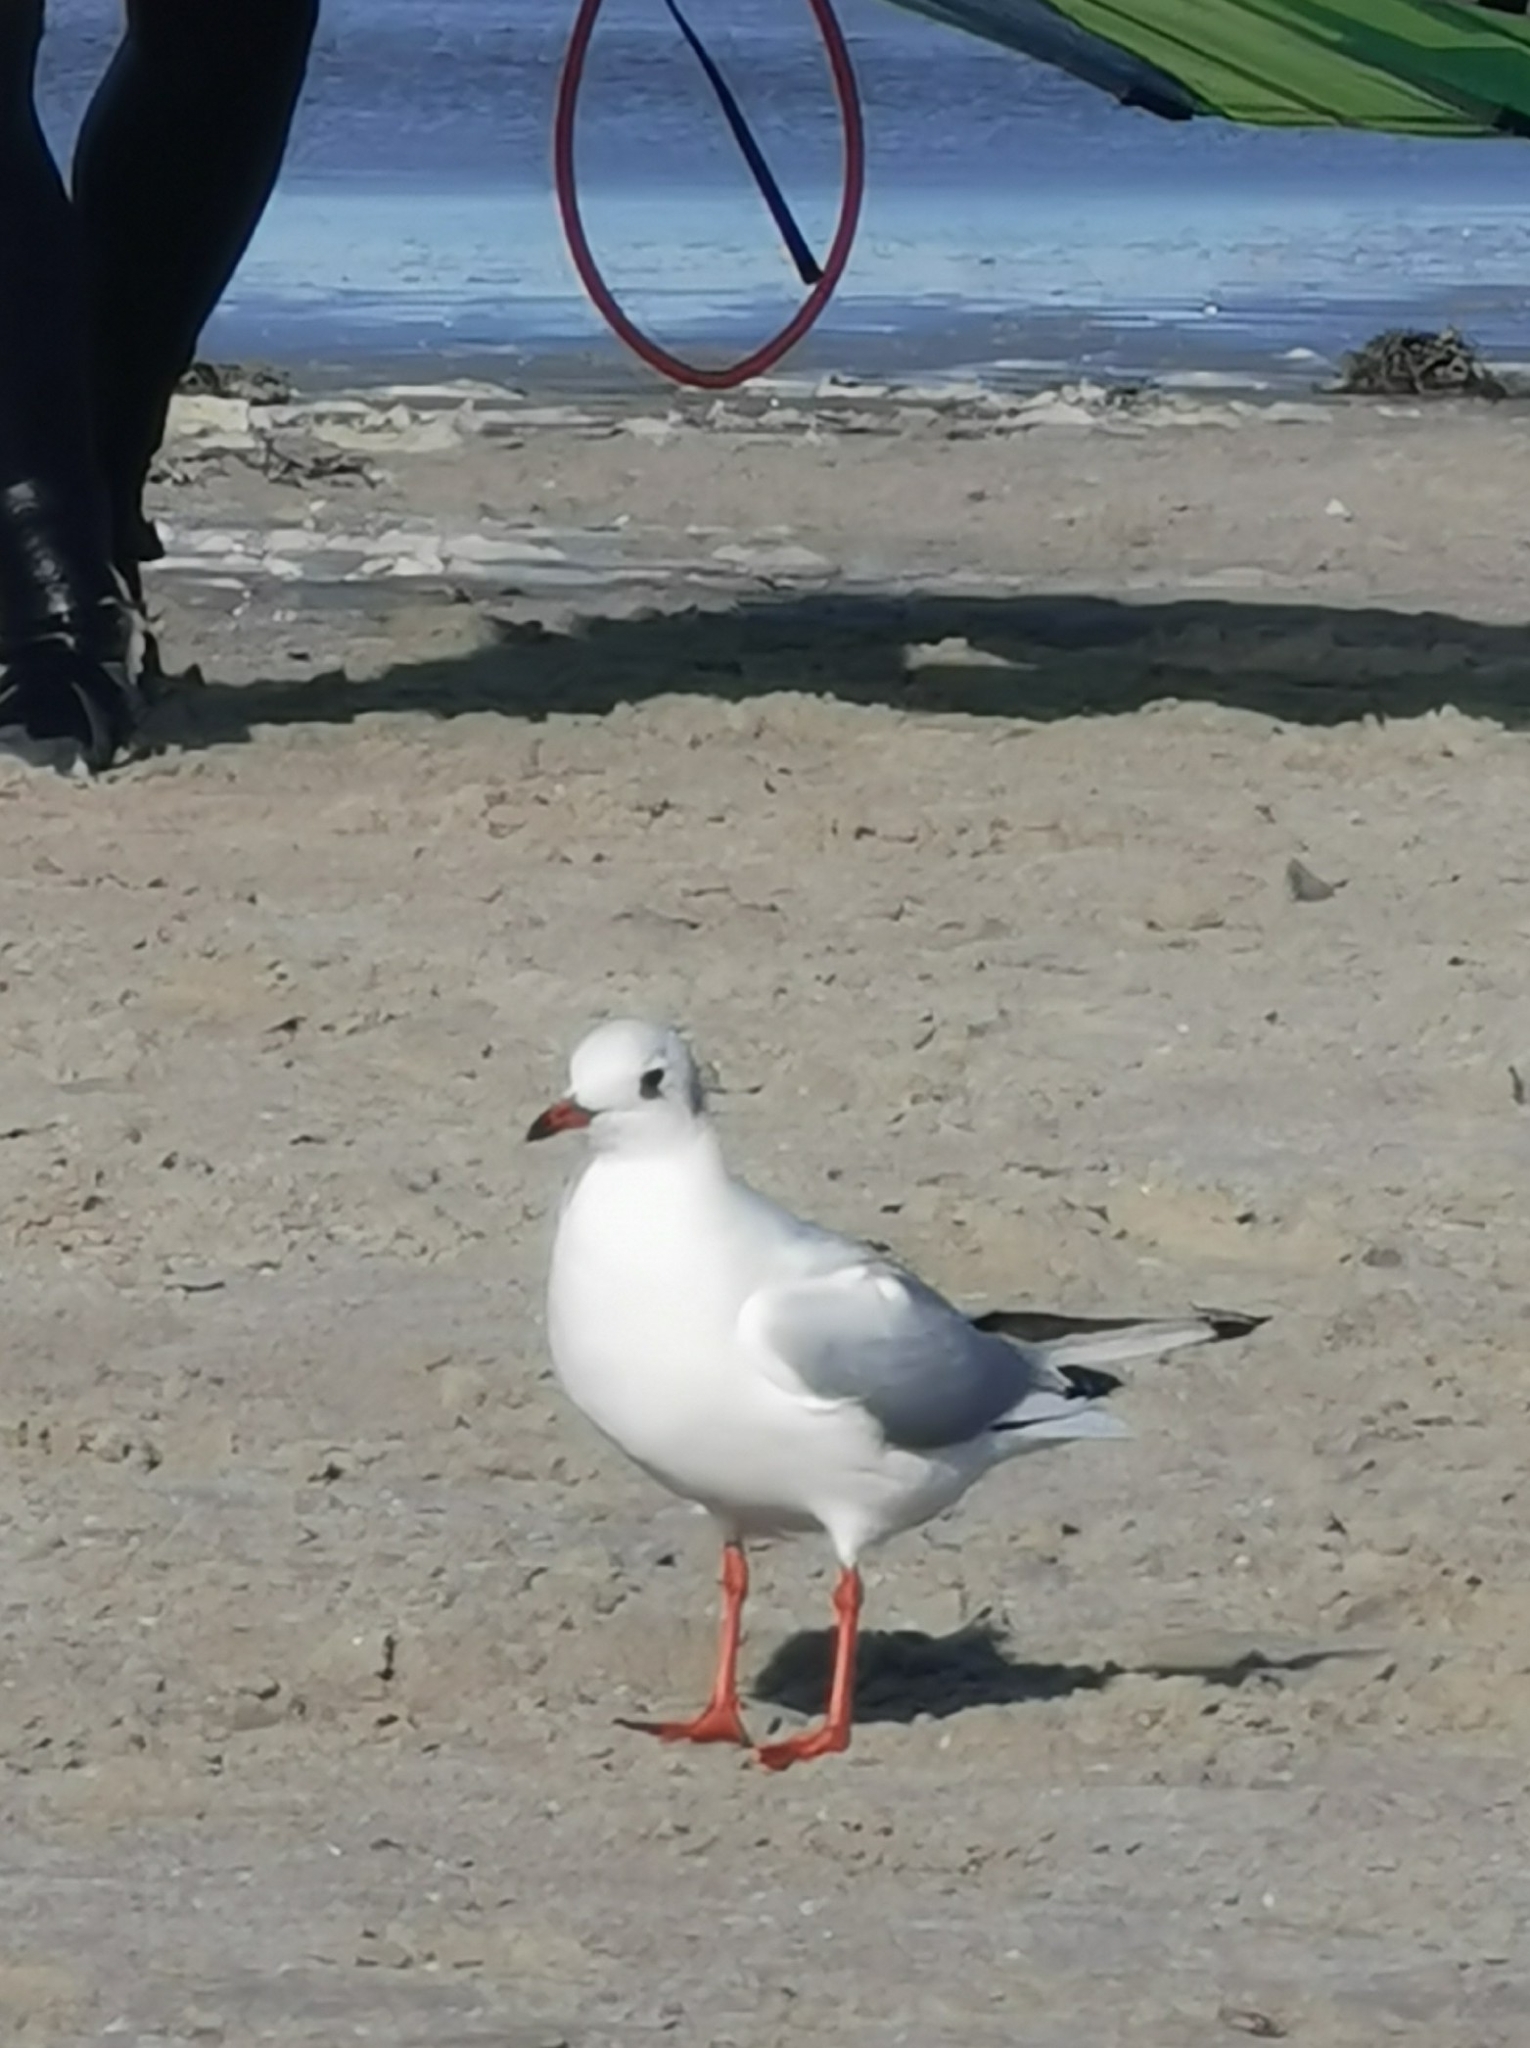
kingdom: Animalia
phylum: Chordata
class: Aves
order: Charadriiformes
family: Laridae
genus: Chroicocephalus
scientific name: Chroicocephalus ridibundus
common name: Black-headed gull
